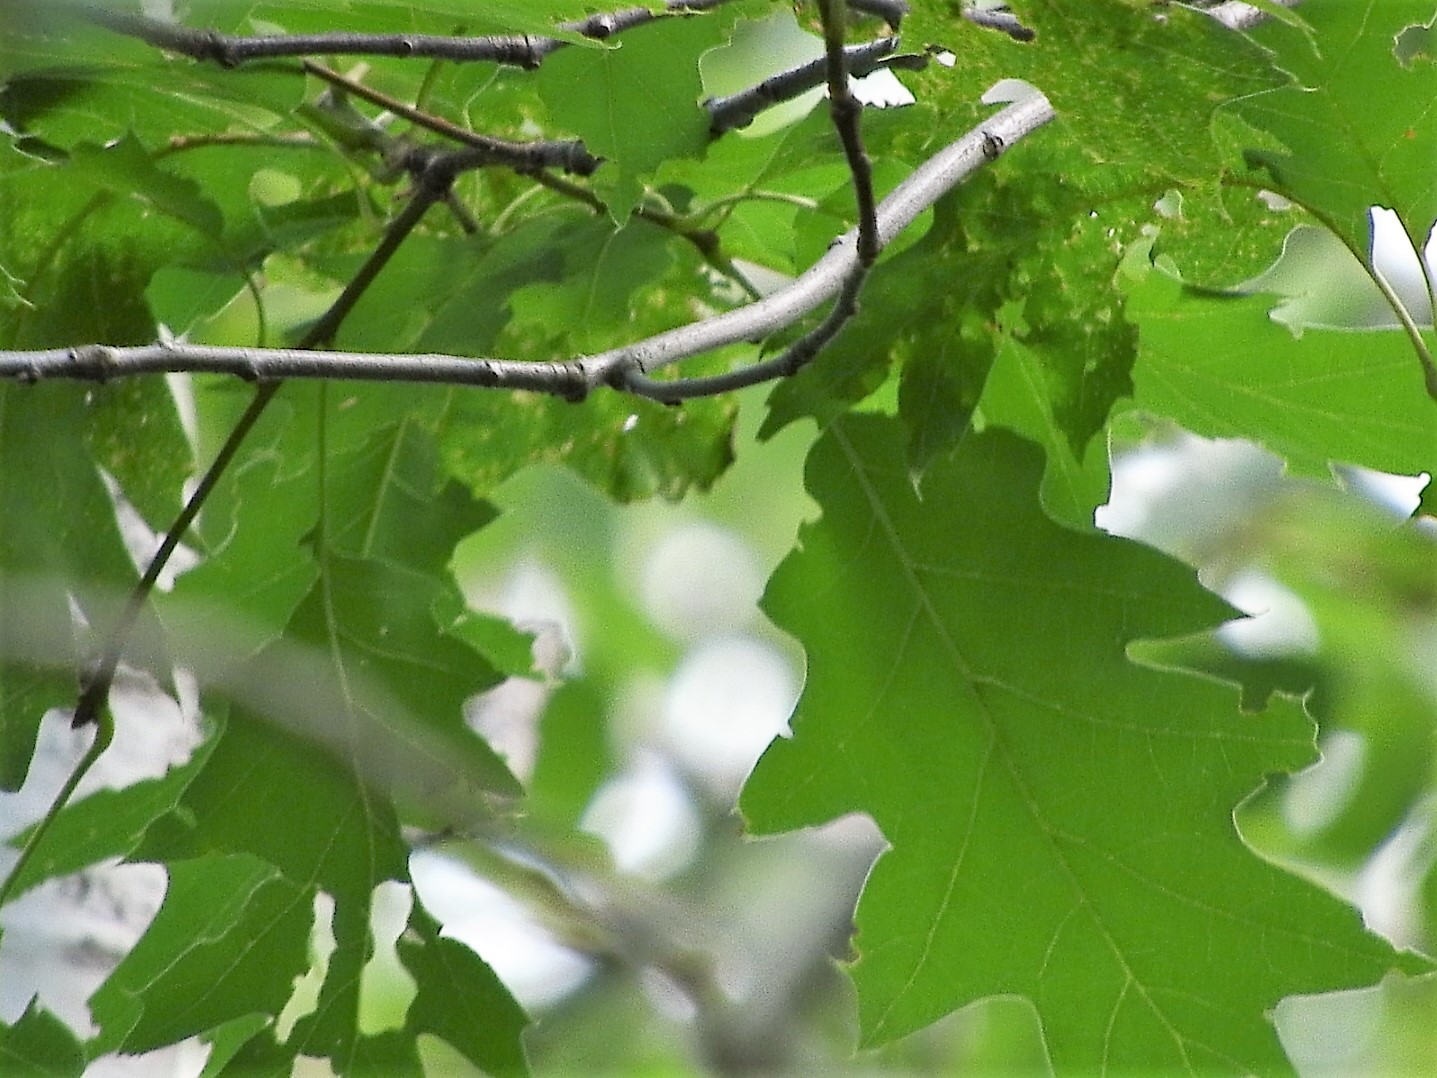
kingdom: Plantae
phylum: Tracheophyta
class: Magnoliopsida
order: Fagales
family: Fagaceae
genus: Quercus
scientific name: Quercus rubra
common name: Red oak
